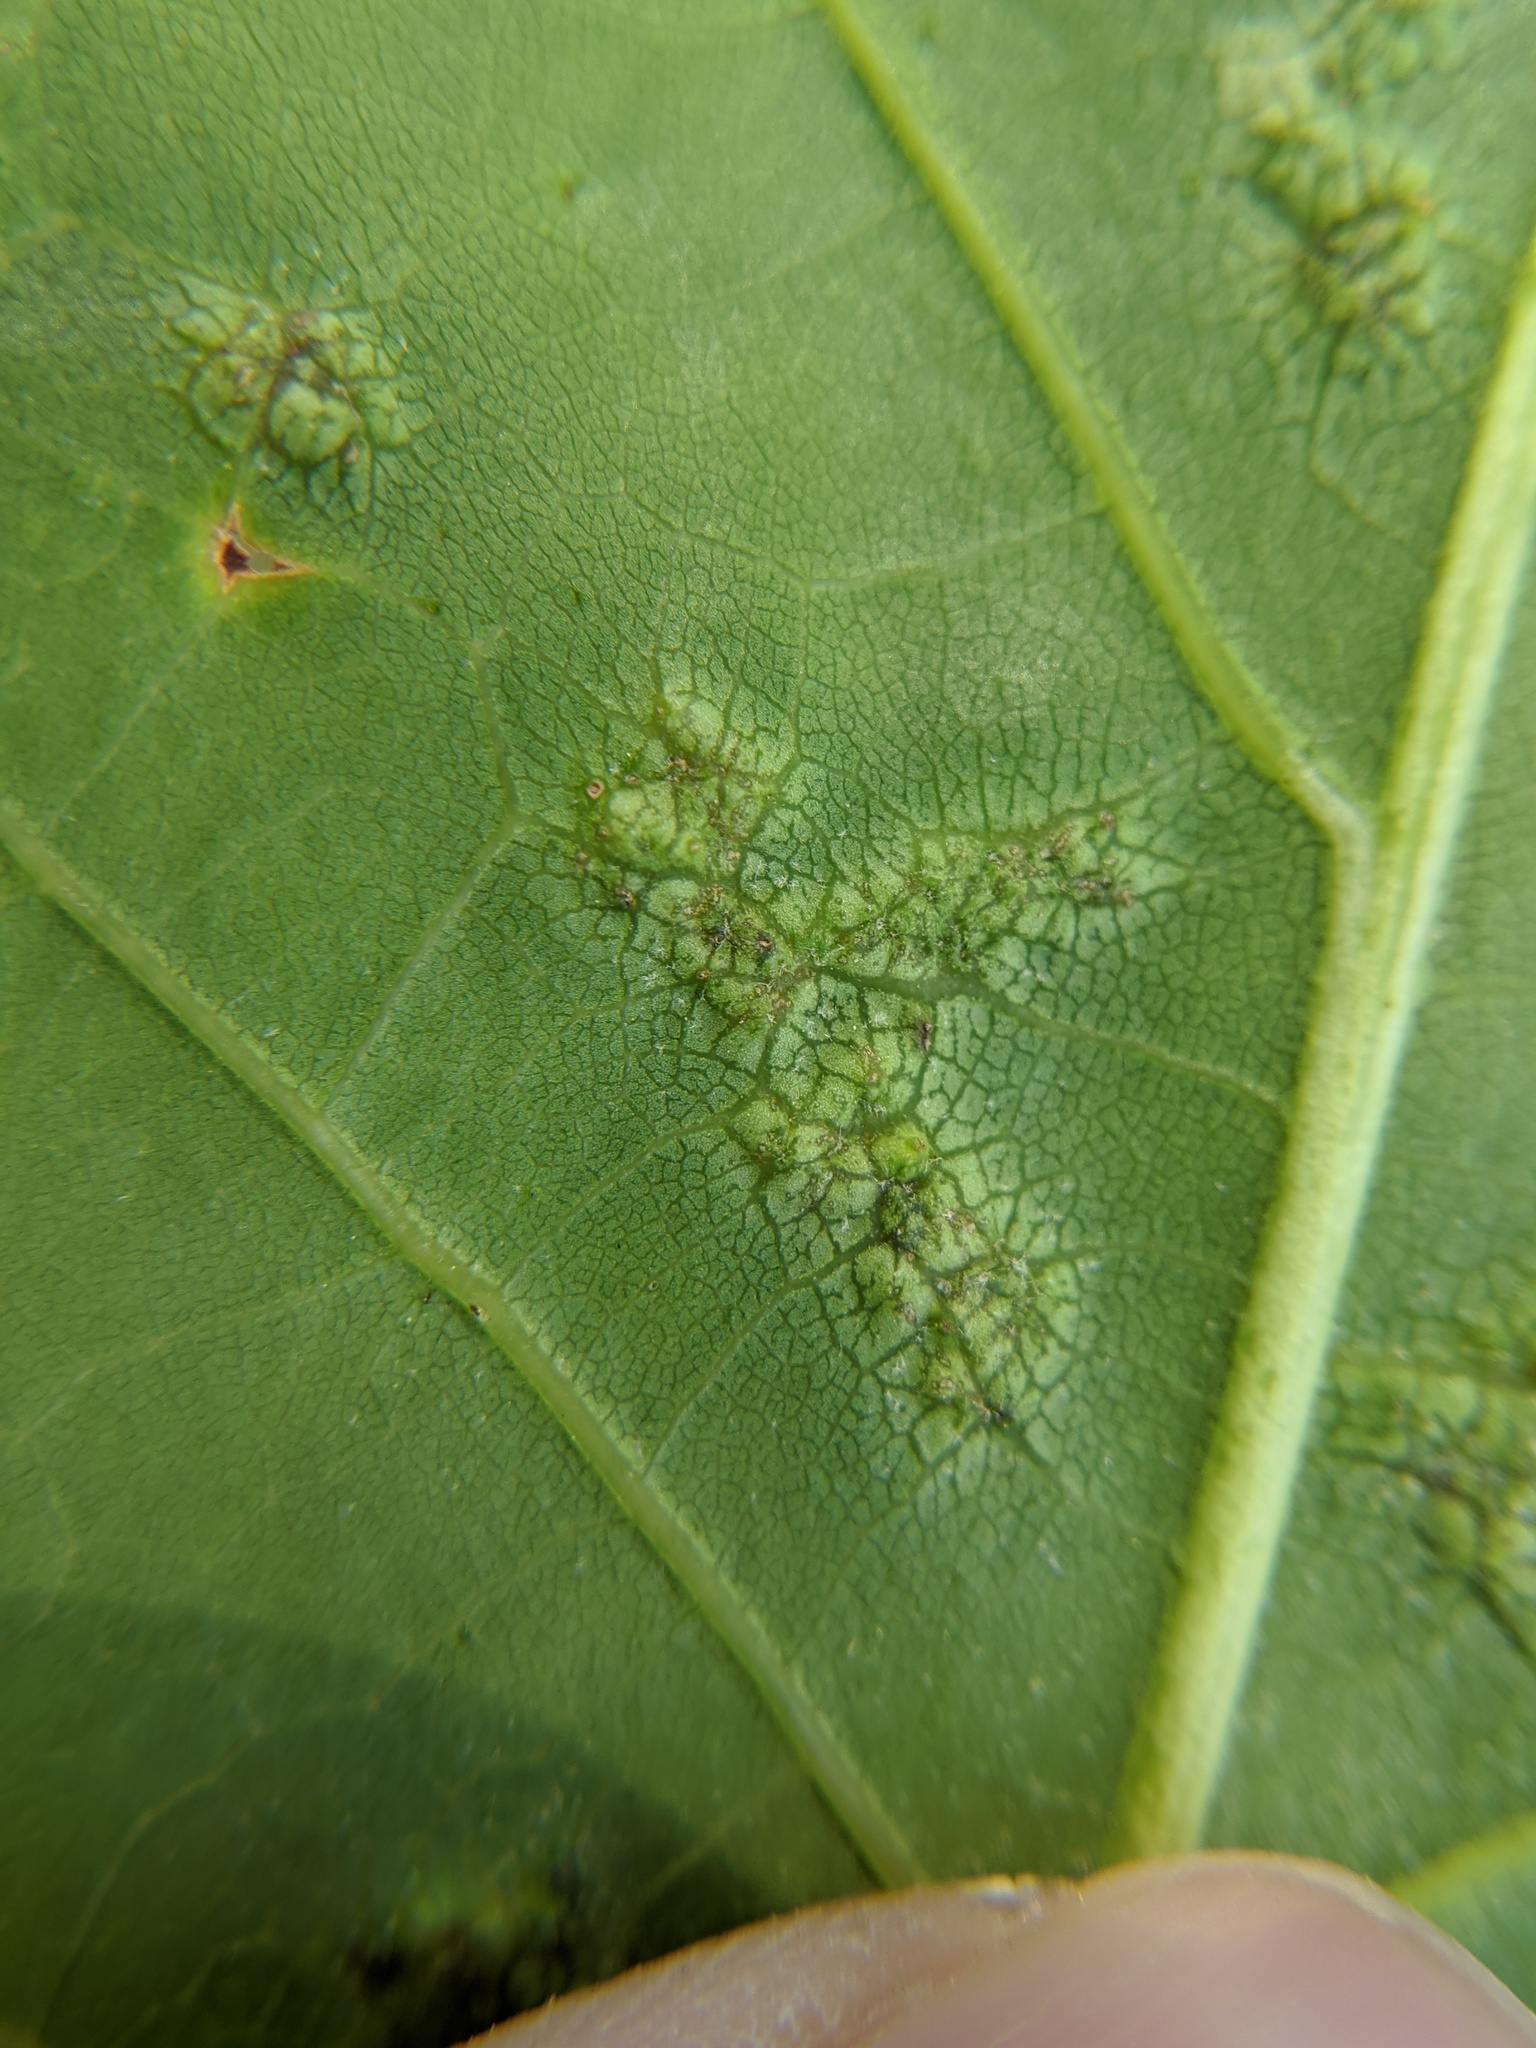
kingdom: Animalia
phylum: Arthropoda
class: Insecta
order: Hymenoptera
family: Cynipidae
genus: Melikaiella
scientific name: Melikaiella ostensackeni
